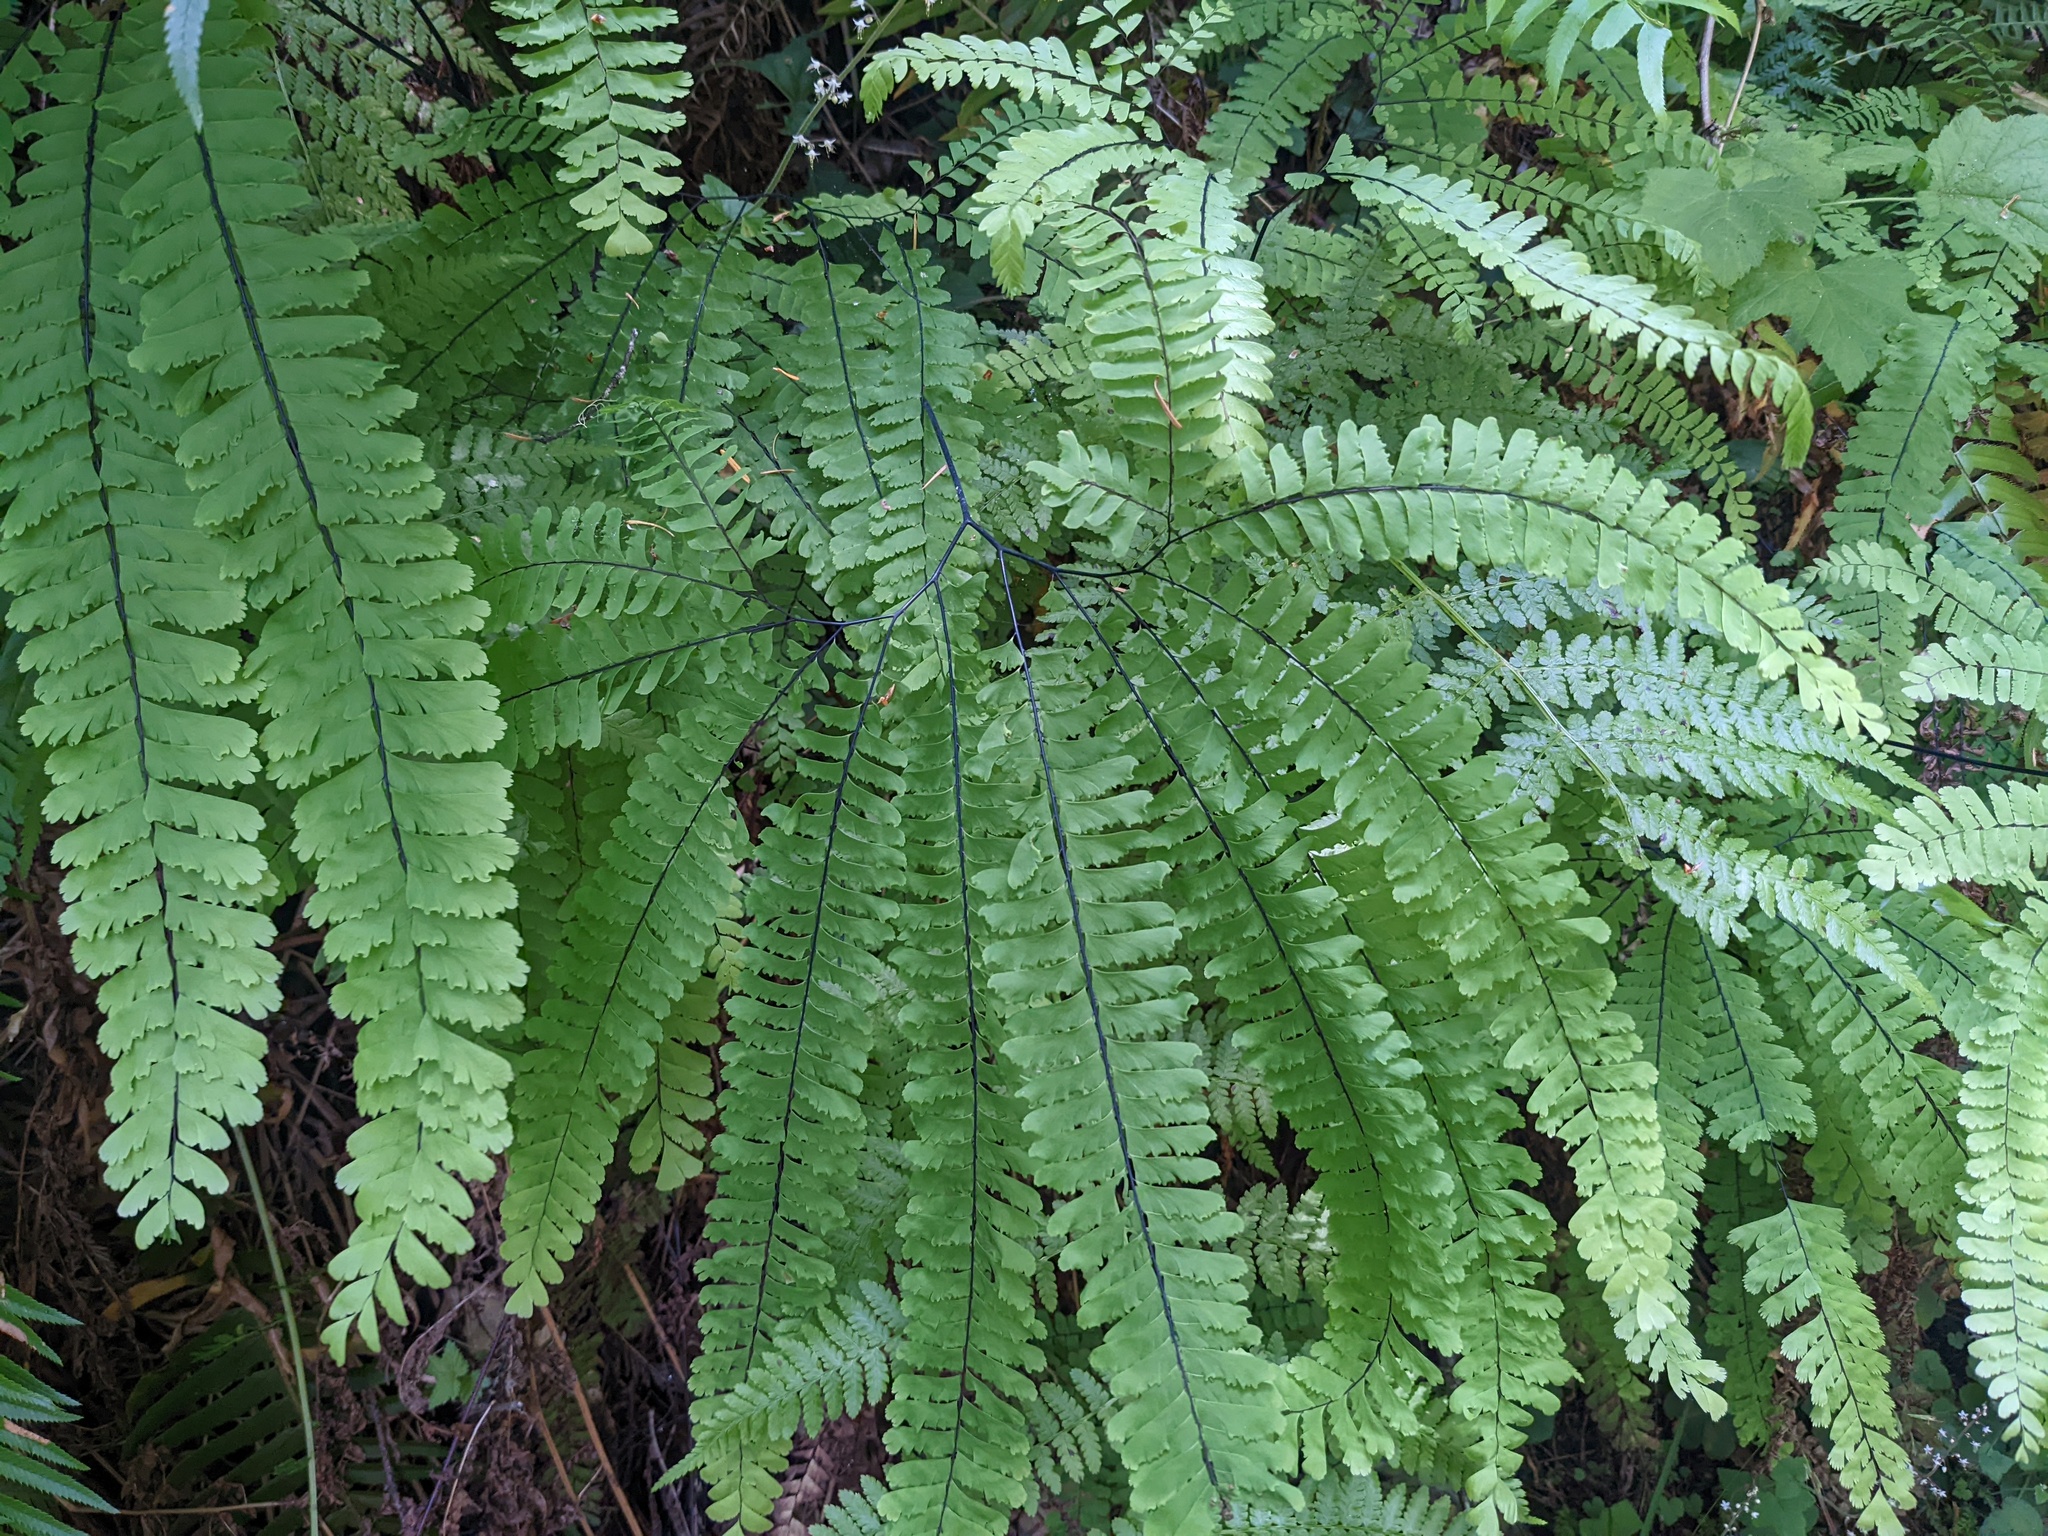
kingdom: Plantae
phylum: Tracheophyta
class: Polypodiopsida
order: Polypodiales
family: Pteridaceae
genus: Adiantum
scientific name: Adiantum aleuticum
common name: Aleutian maidenhair fern
